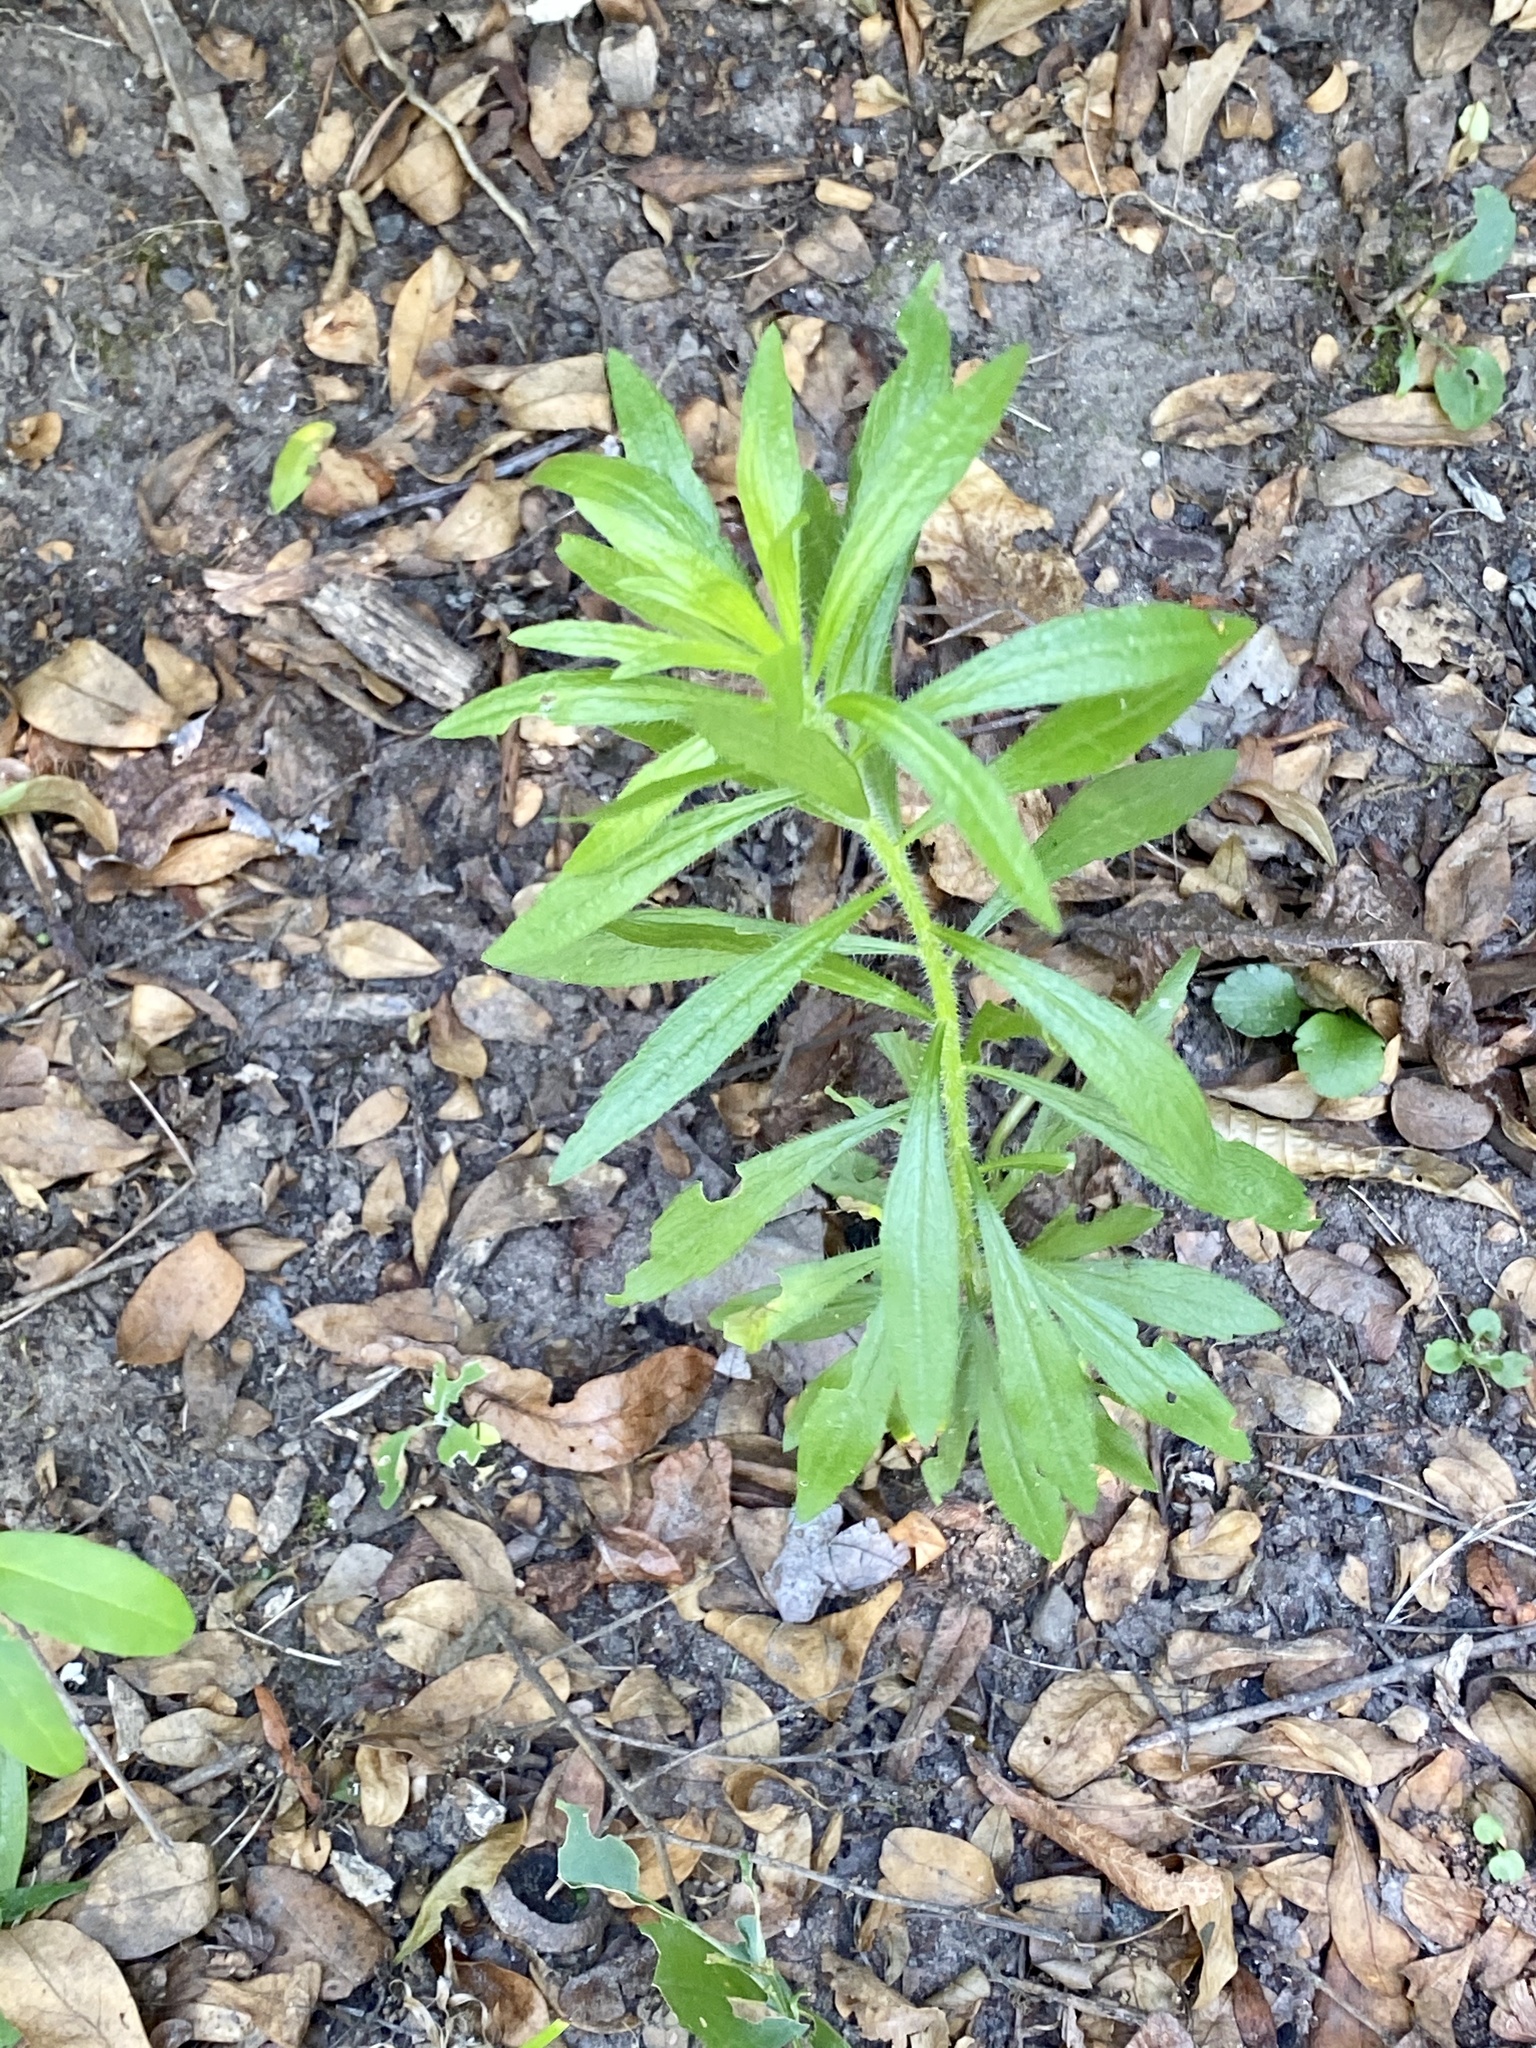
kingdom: Plantae
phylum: Tracheophyta
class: Magnoliopsida
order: Asterales
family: Asteraceae
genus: Erigeron
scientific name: Erigeron canadensis
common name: Canadian fleabane
